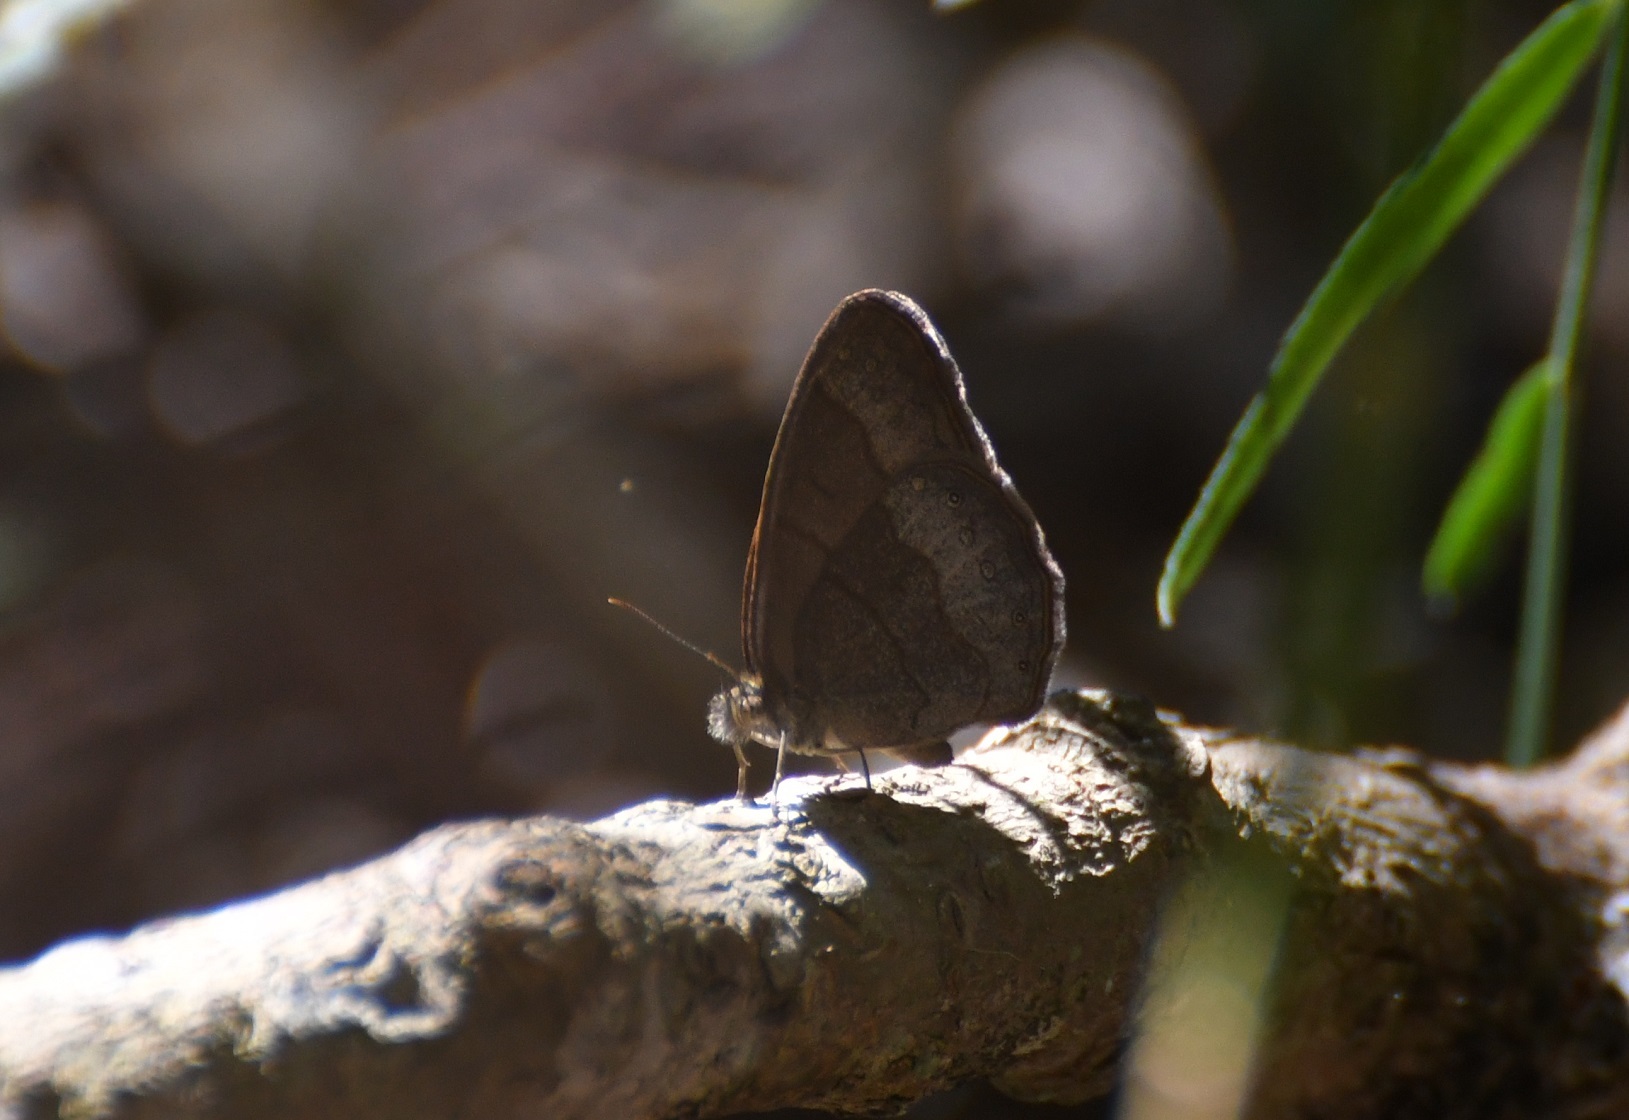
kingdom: Animalia
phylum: Arthropoda
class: Insecta
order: Lepidoptera
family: Nymphalidae
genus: Hermeuptychia
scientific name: Hermeuptychia hermes
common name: Hermes satyr
